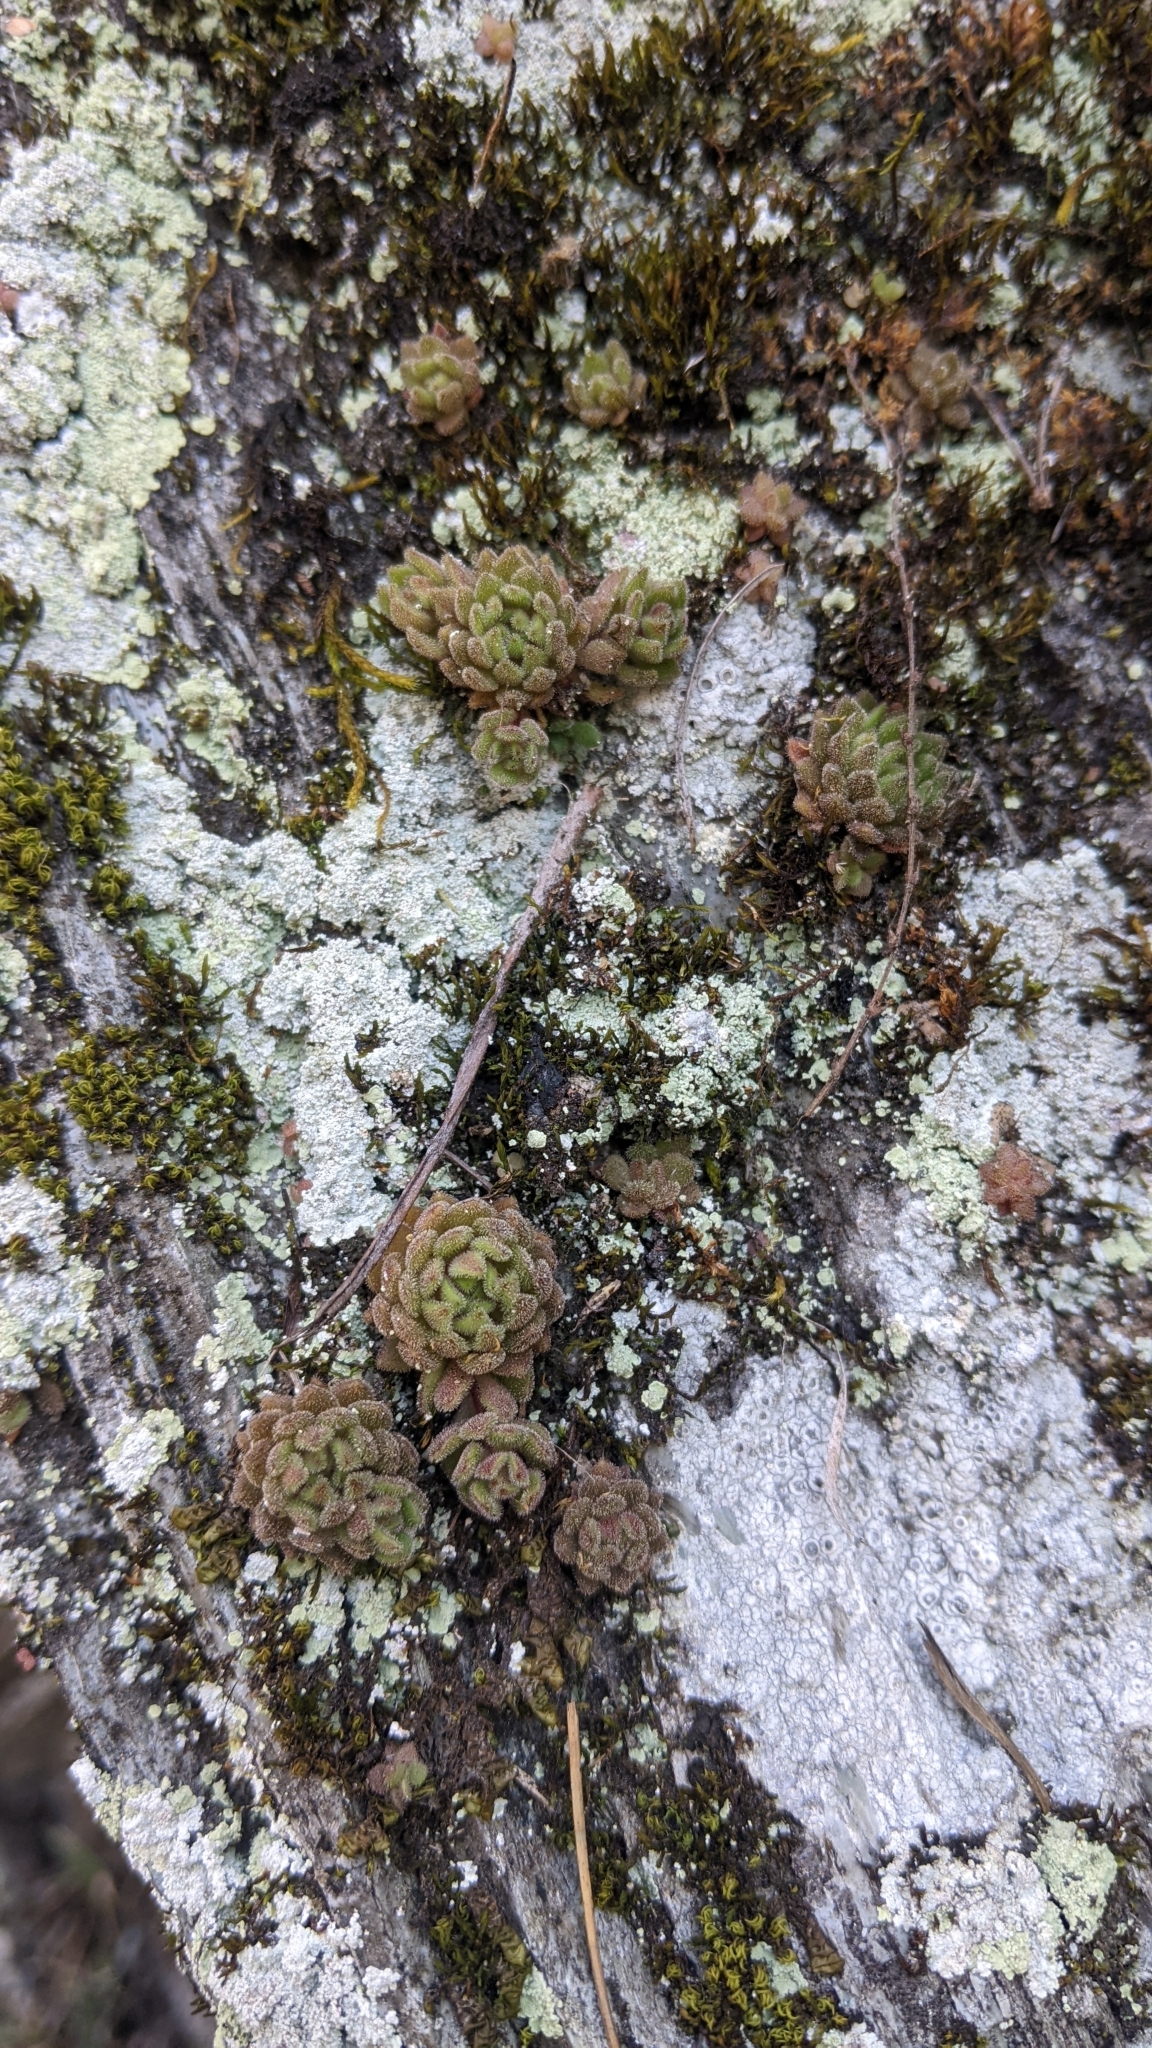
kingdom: Plantae
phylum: Tracheophyta
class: Magnoliopsida
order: Saxifragales
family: Crassulaceae
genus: Sedum
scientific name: Sedum stellariifolium
